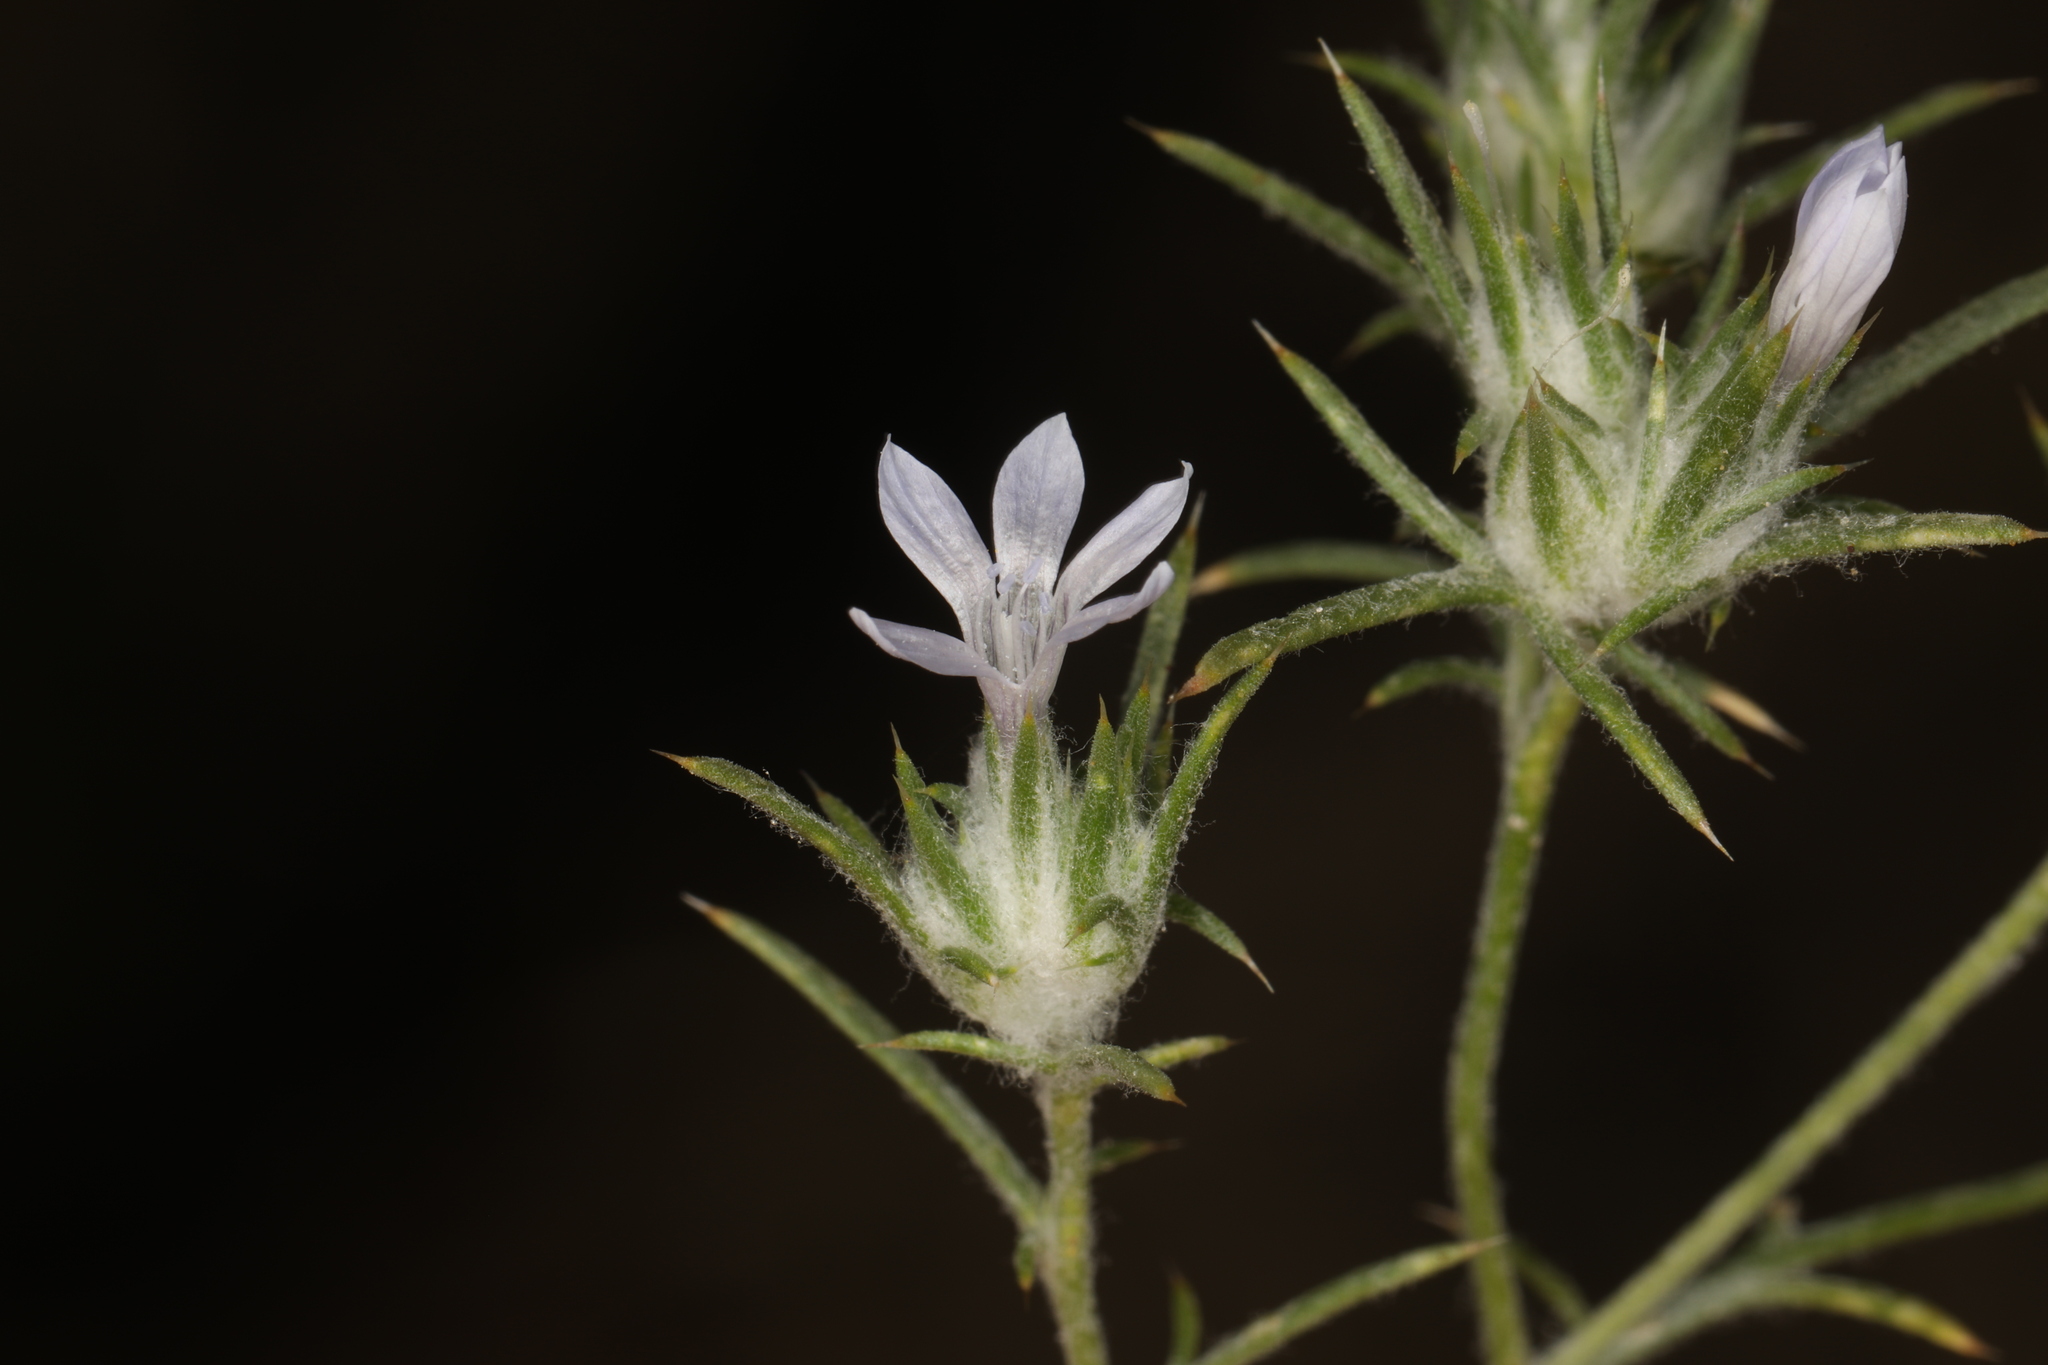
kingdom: Plantae
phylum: Tracheophyta
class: Magnoliopsida
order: Ericales
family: Polemoniaceae
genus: Eriastrum
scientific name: Eriastrum wilcoxii
